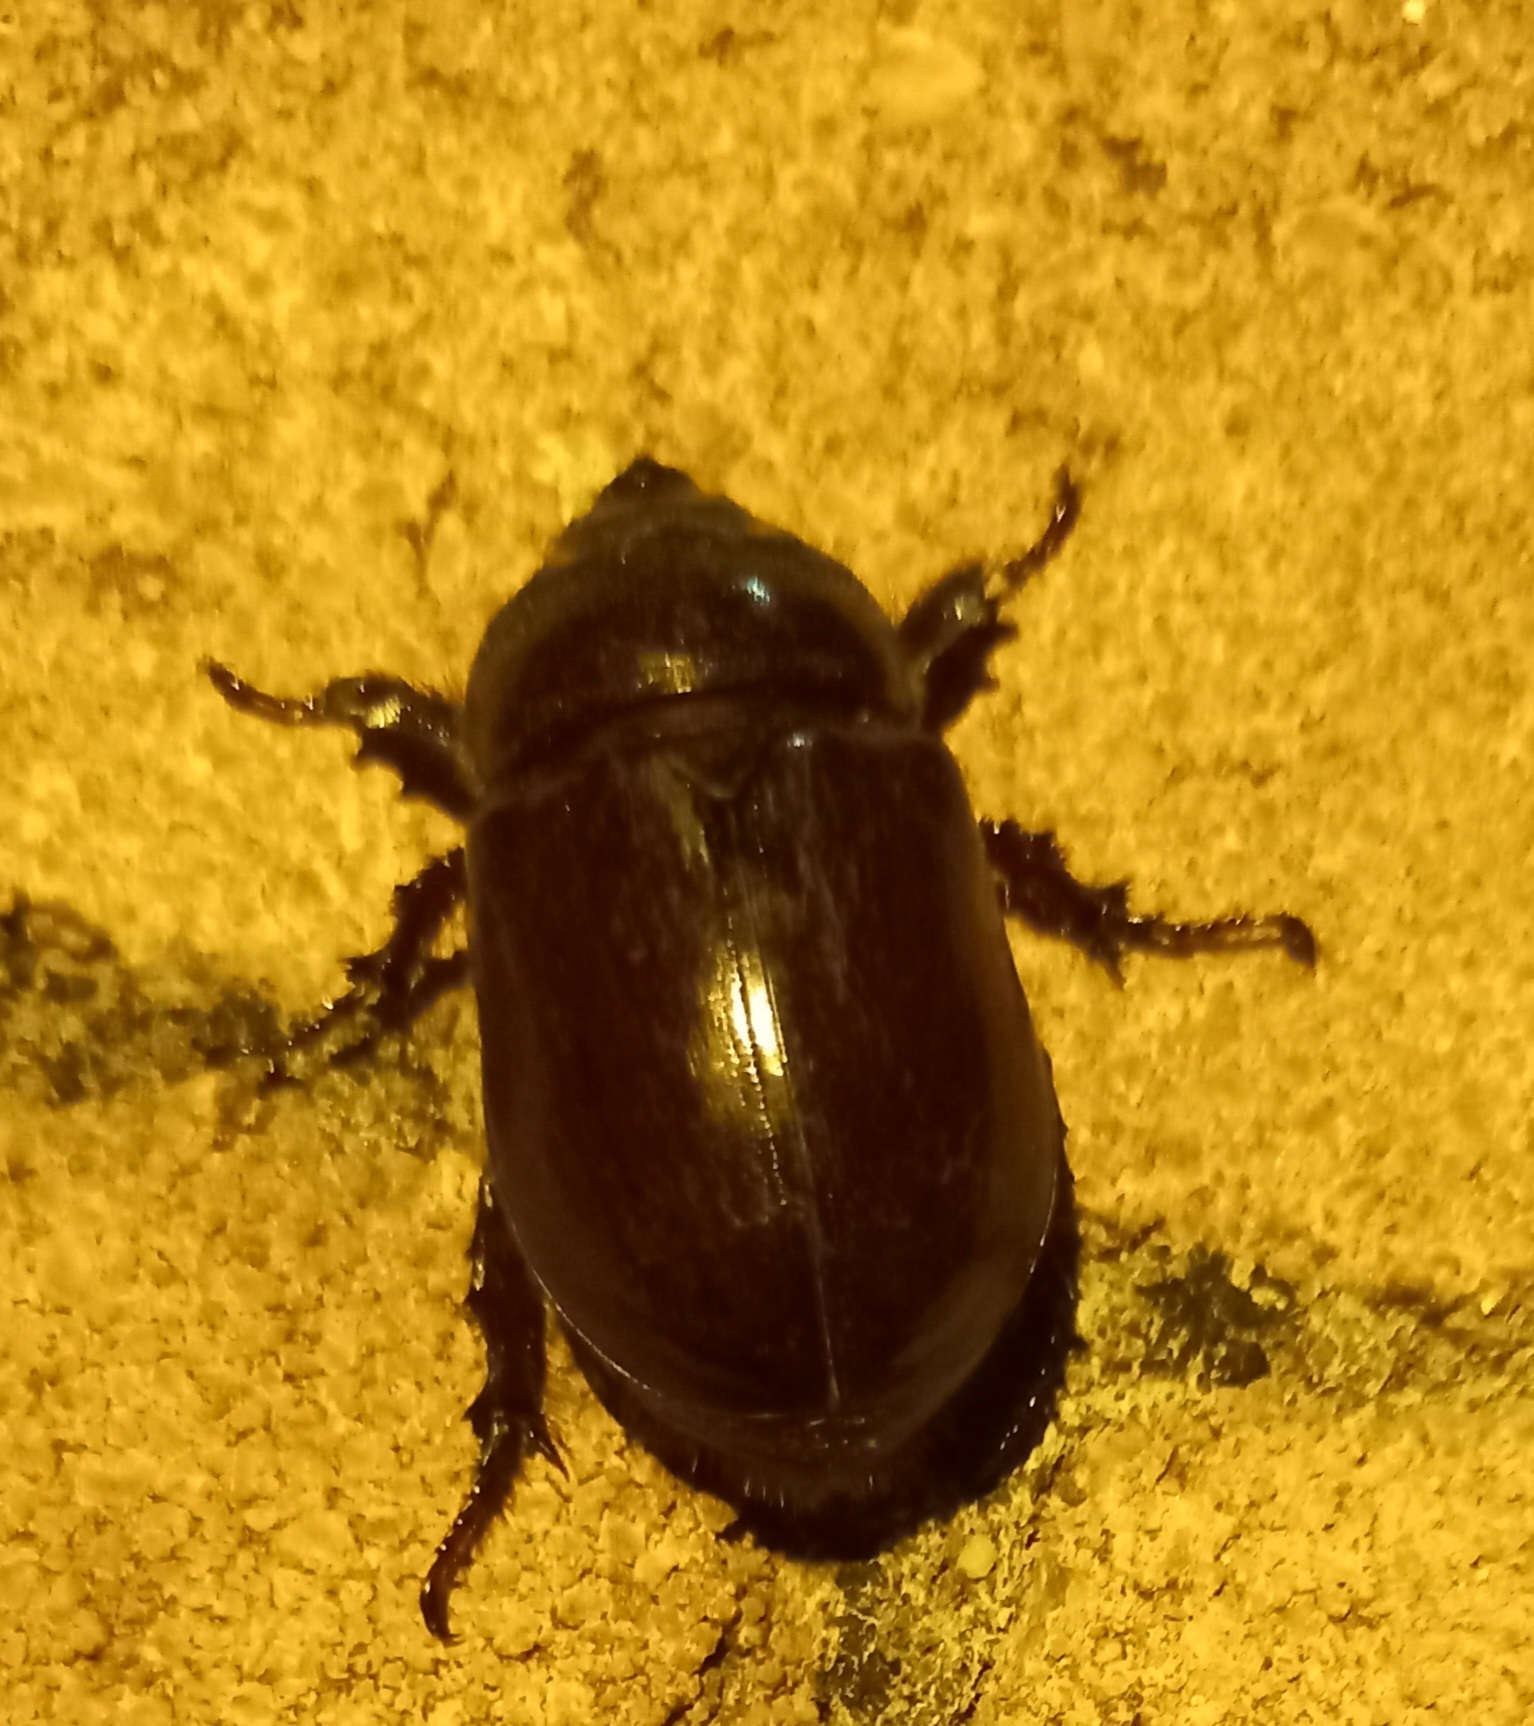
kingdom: Animalia
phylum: Arthropoda
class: Insecta
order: Coleoptera
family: Scarabaeidae
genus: Oryctes
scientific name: Oryctes nasicornis
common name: European rhinoceros beetle
